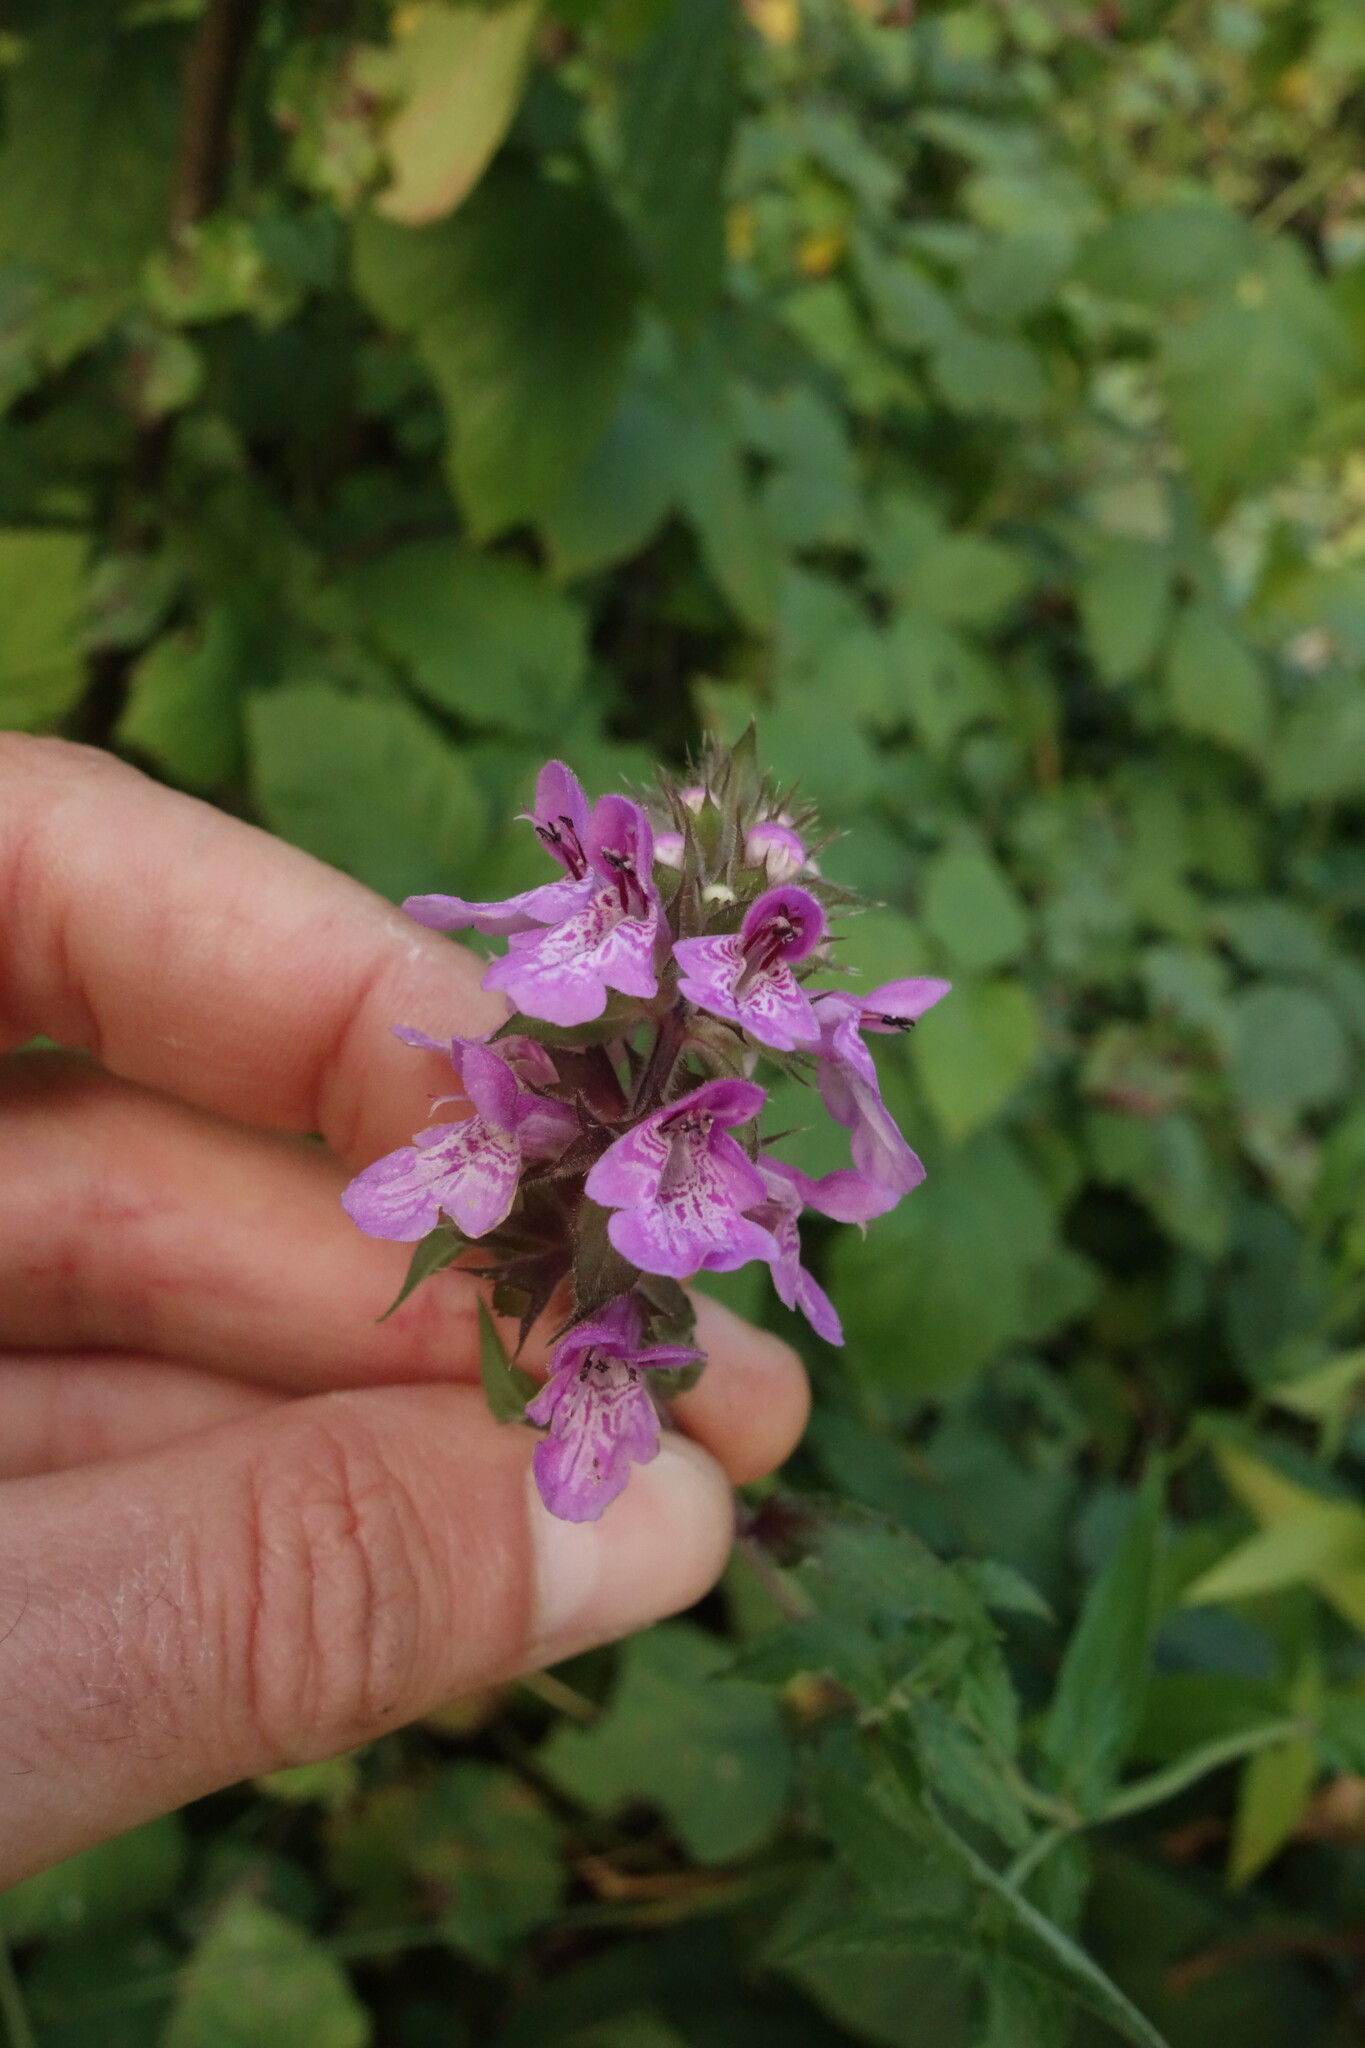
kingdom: Plantae
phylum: Tracheophyta
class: Magnoliopsida
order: Lamiales
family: Lamiaceae
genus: Stachys
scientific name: Stachys palustris
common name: Marsh woundwort
